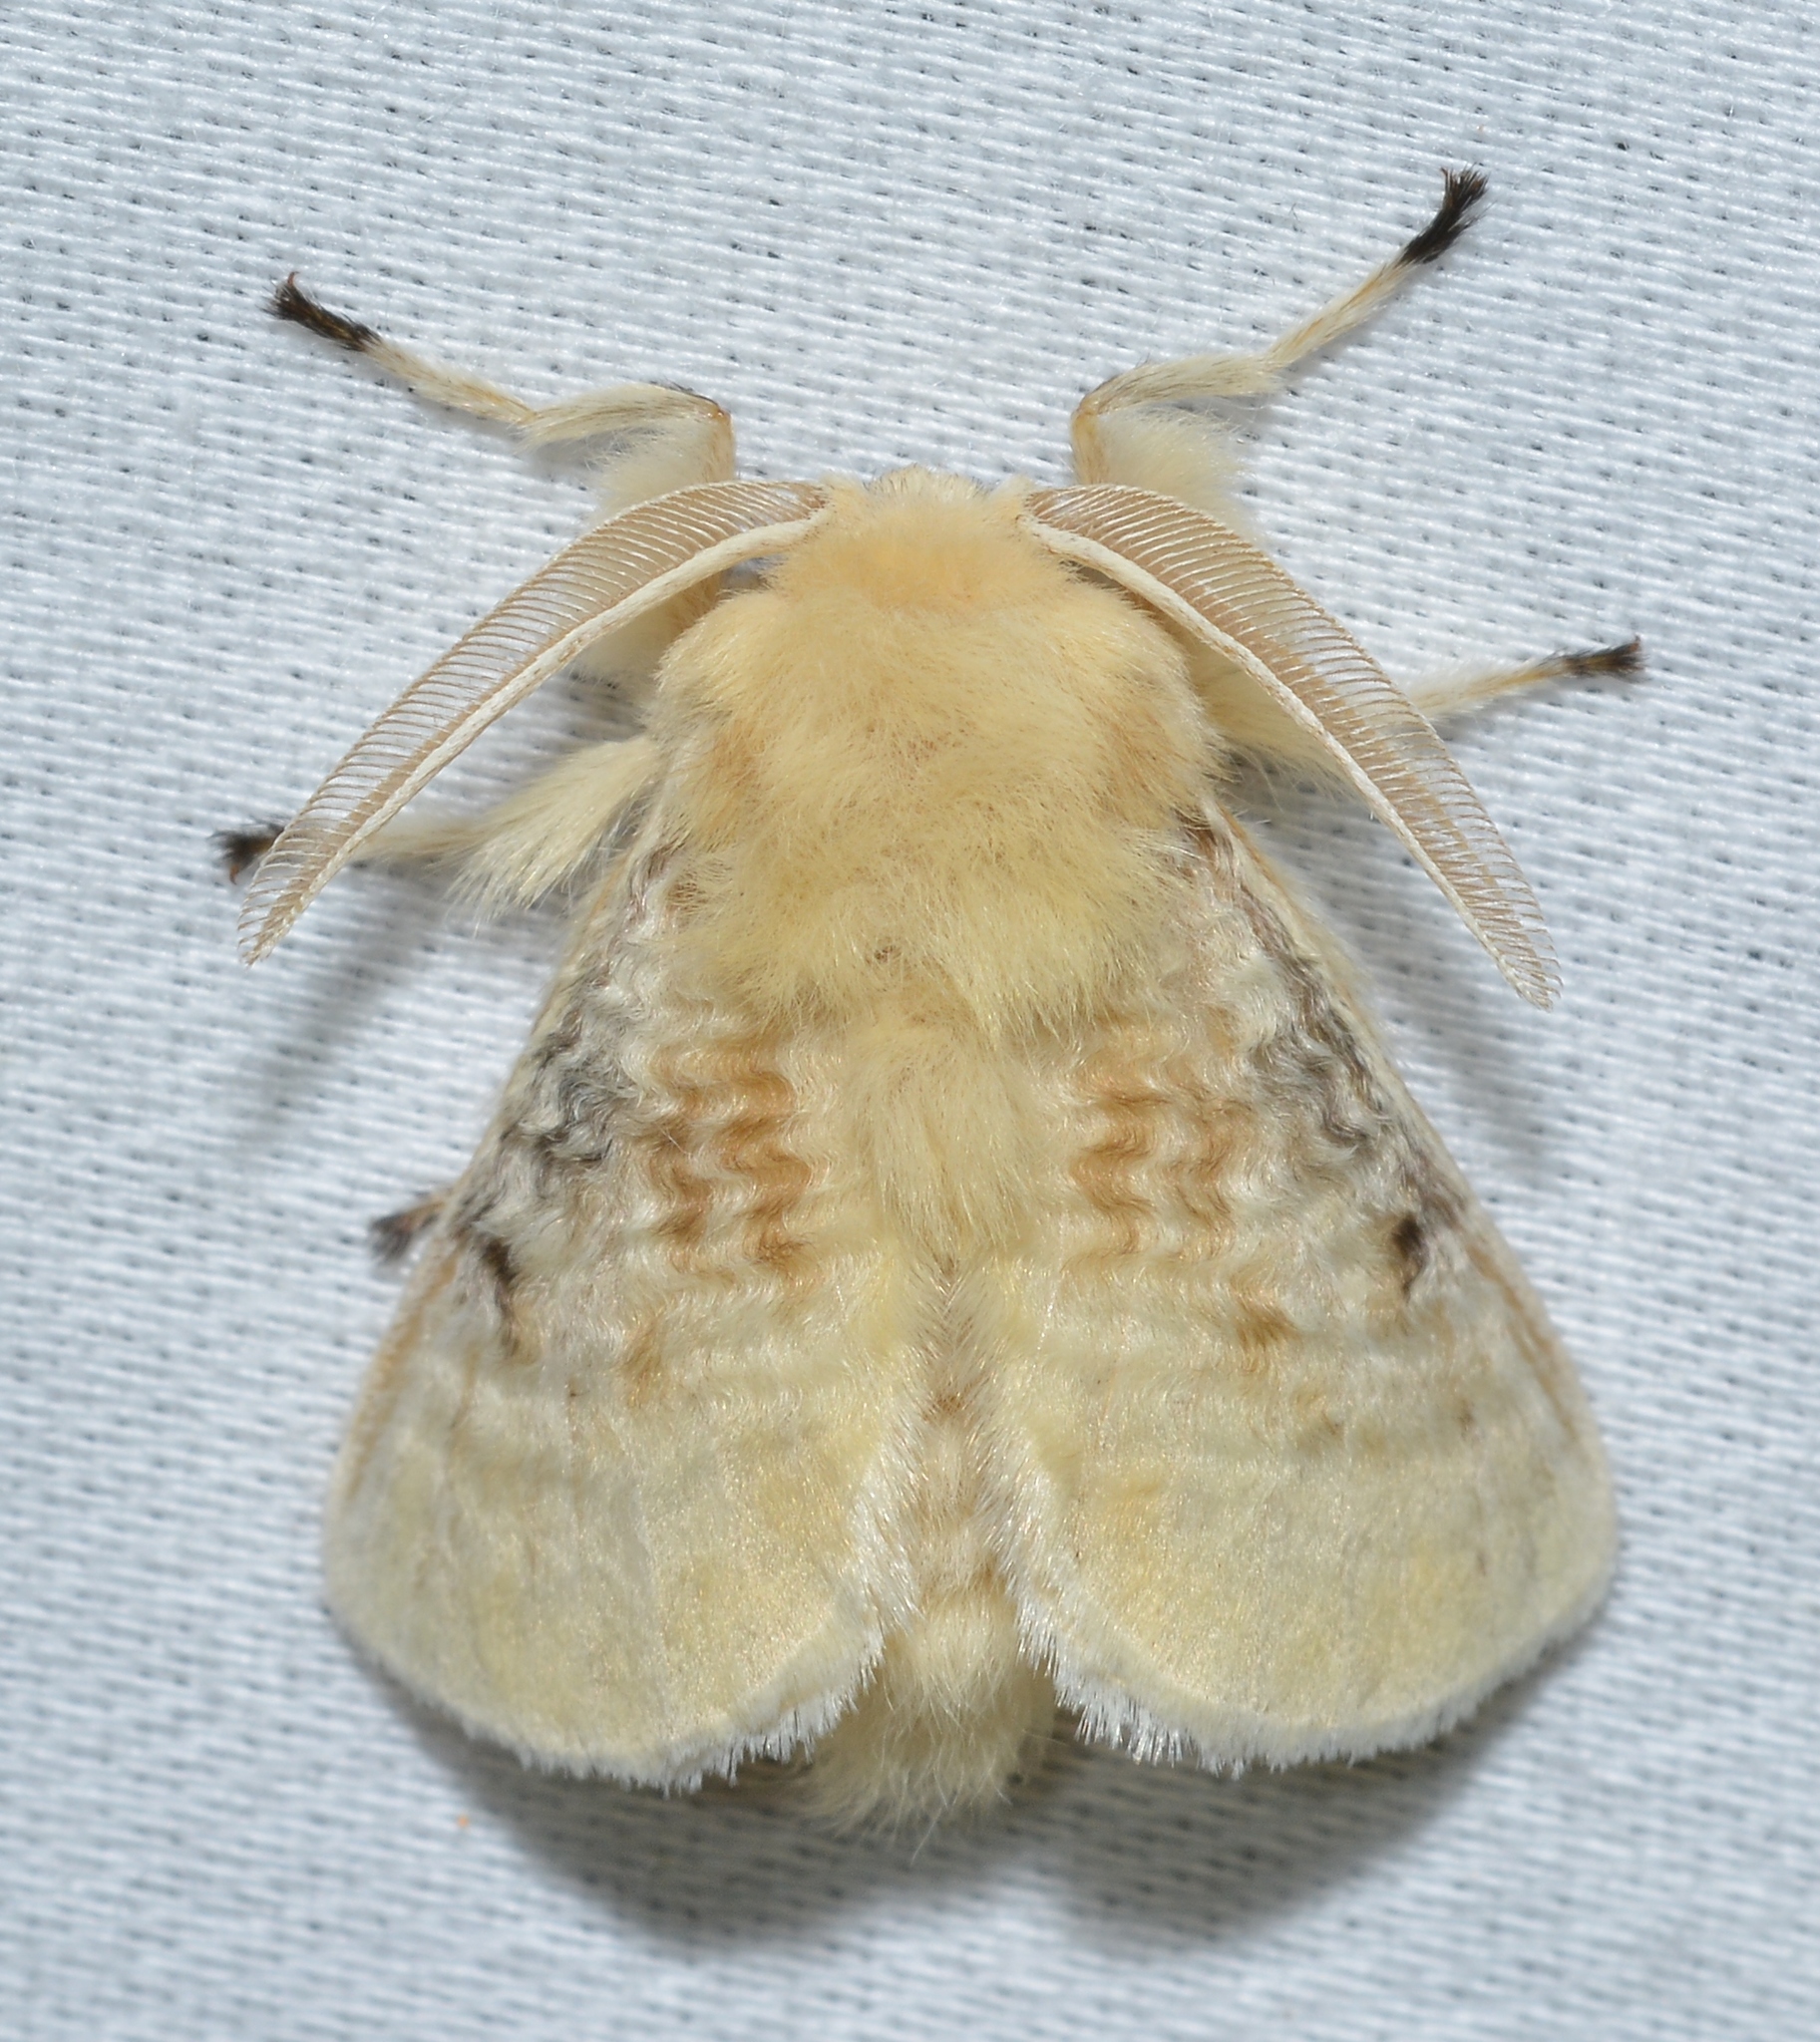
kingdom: Animalia
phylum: Arthropoda
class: Insecta
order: Lepidoptera
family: Megalopygidae
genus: Megalopyge
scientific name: Megalopyge crispata
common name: Black-waved flannel moth
